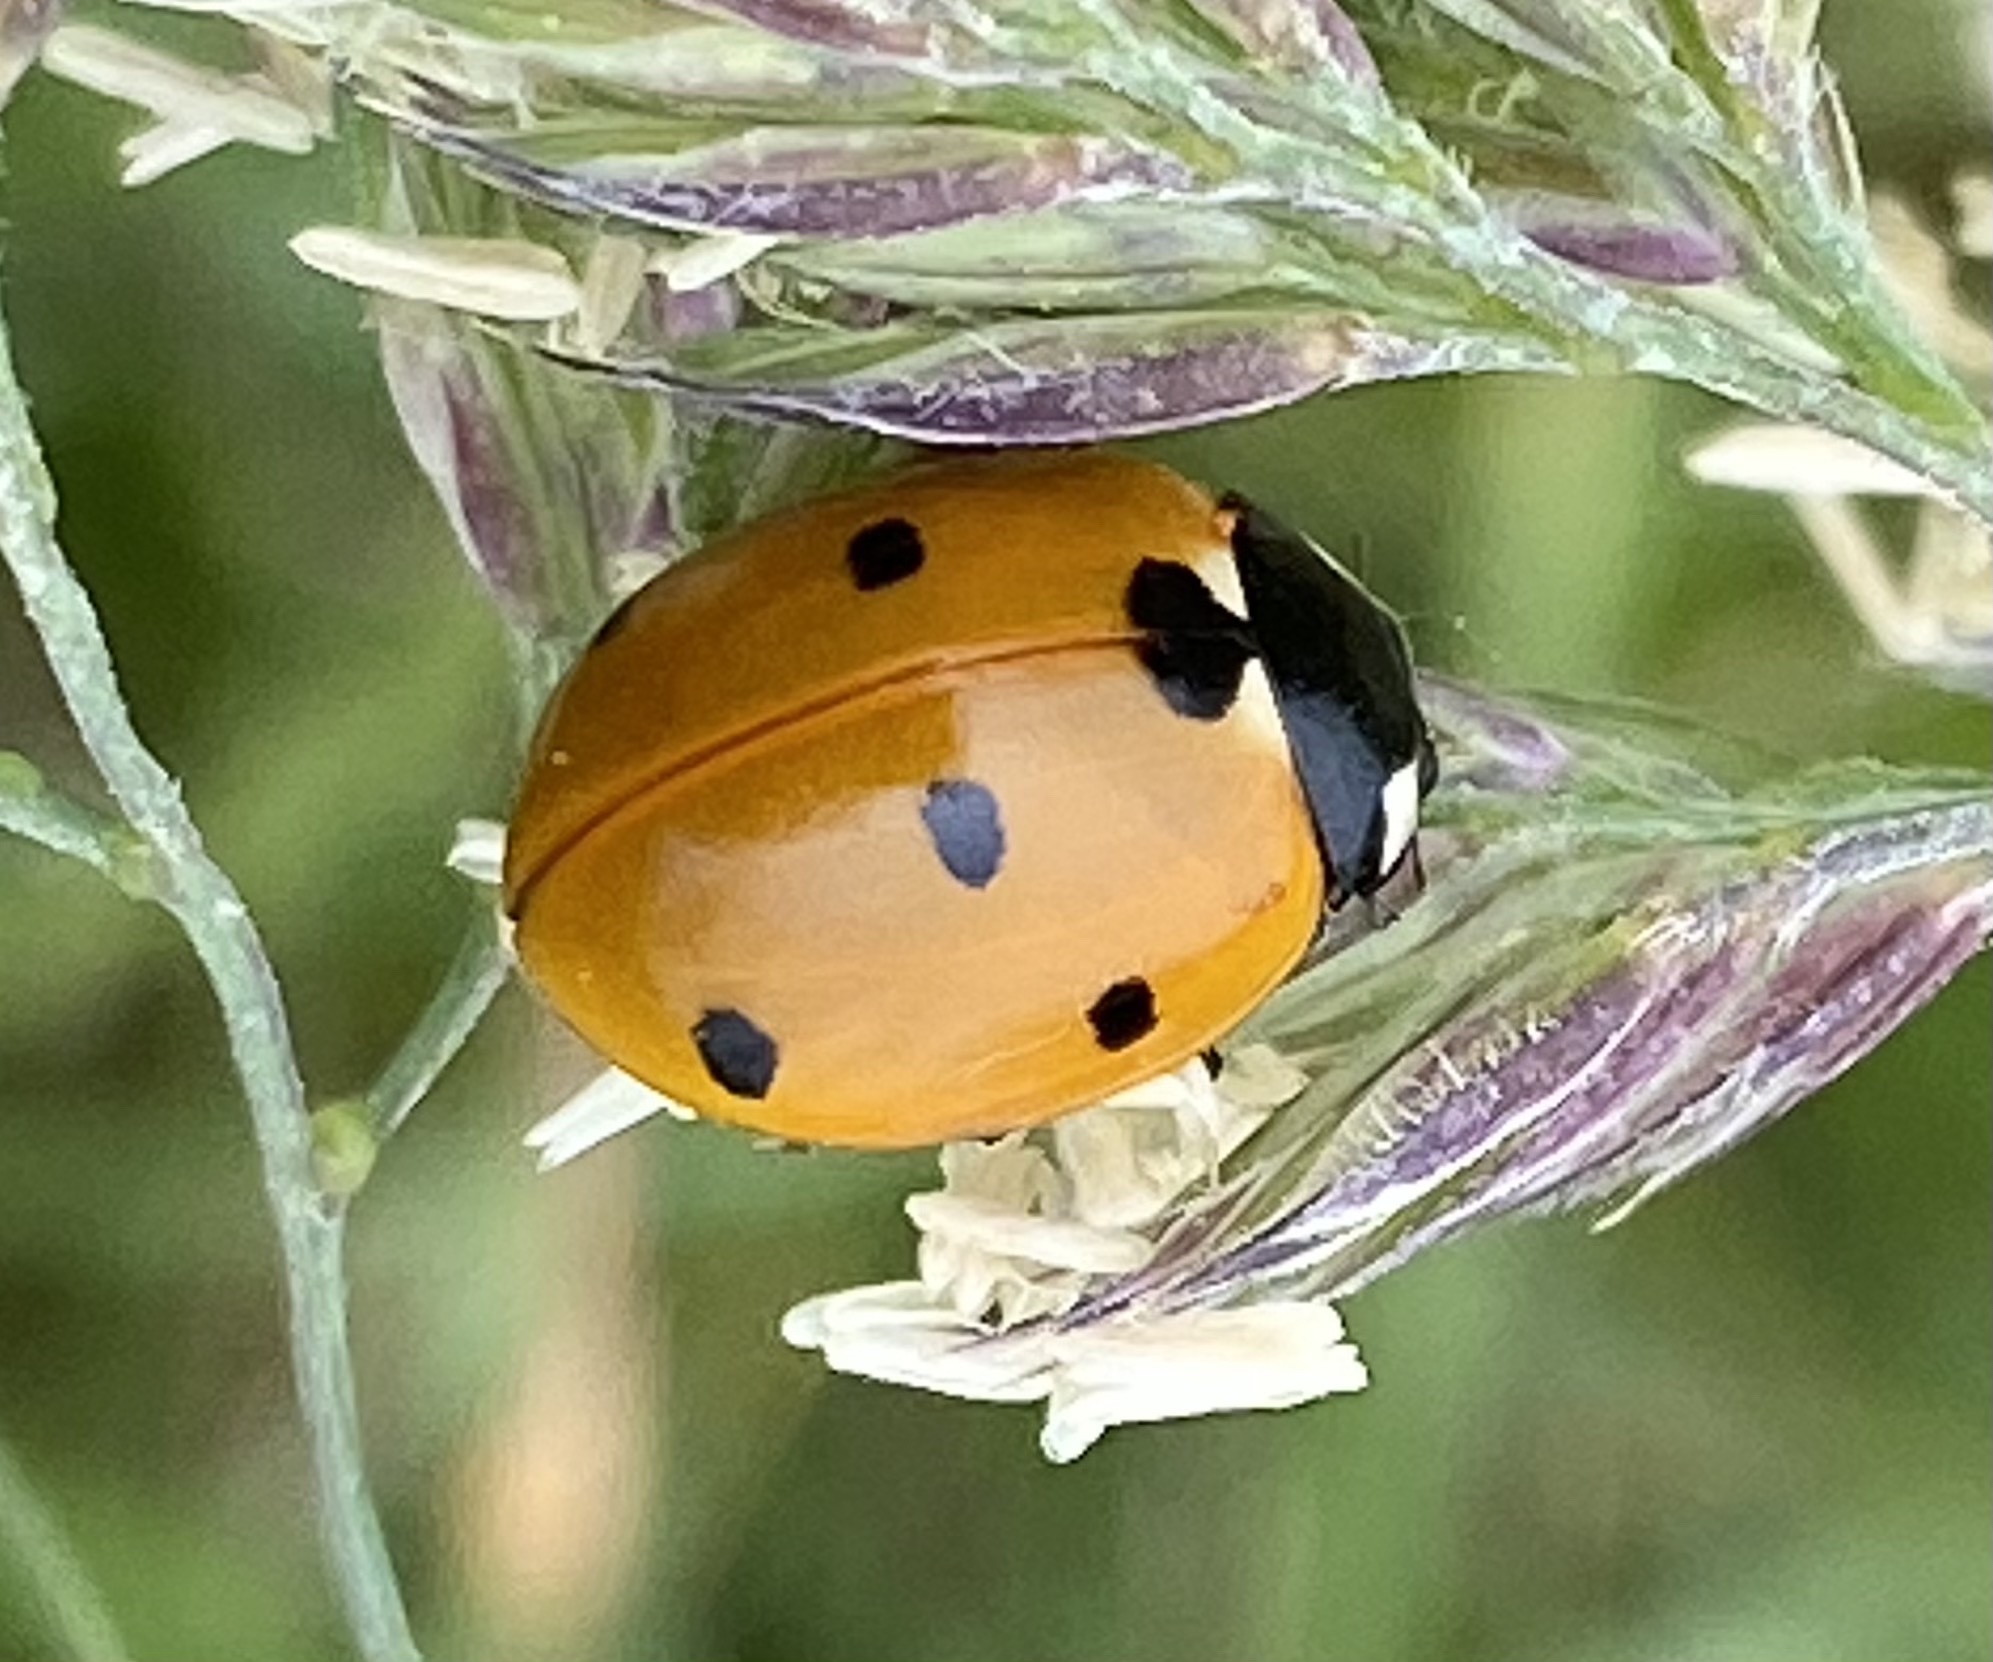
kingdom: Animalia
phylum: Arthropoda
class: Insecta
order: Coleoptera
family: Coccinellidae
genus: Coccinella
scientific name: Coccinella septempunctata
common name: Sevenspotted lady beetle
